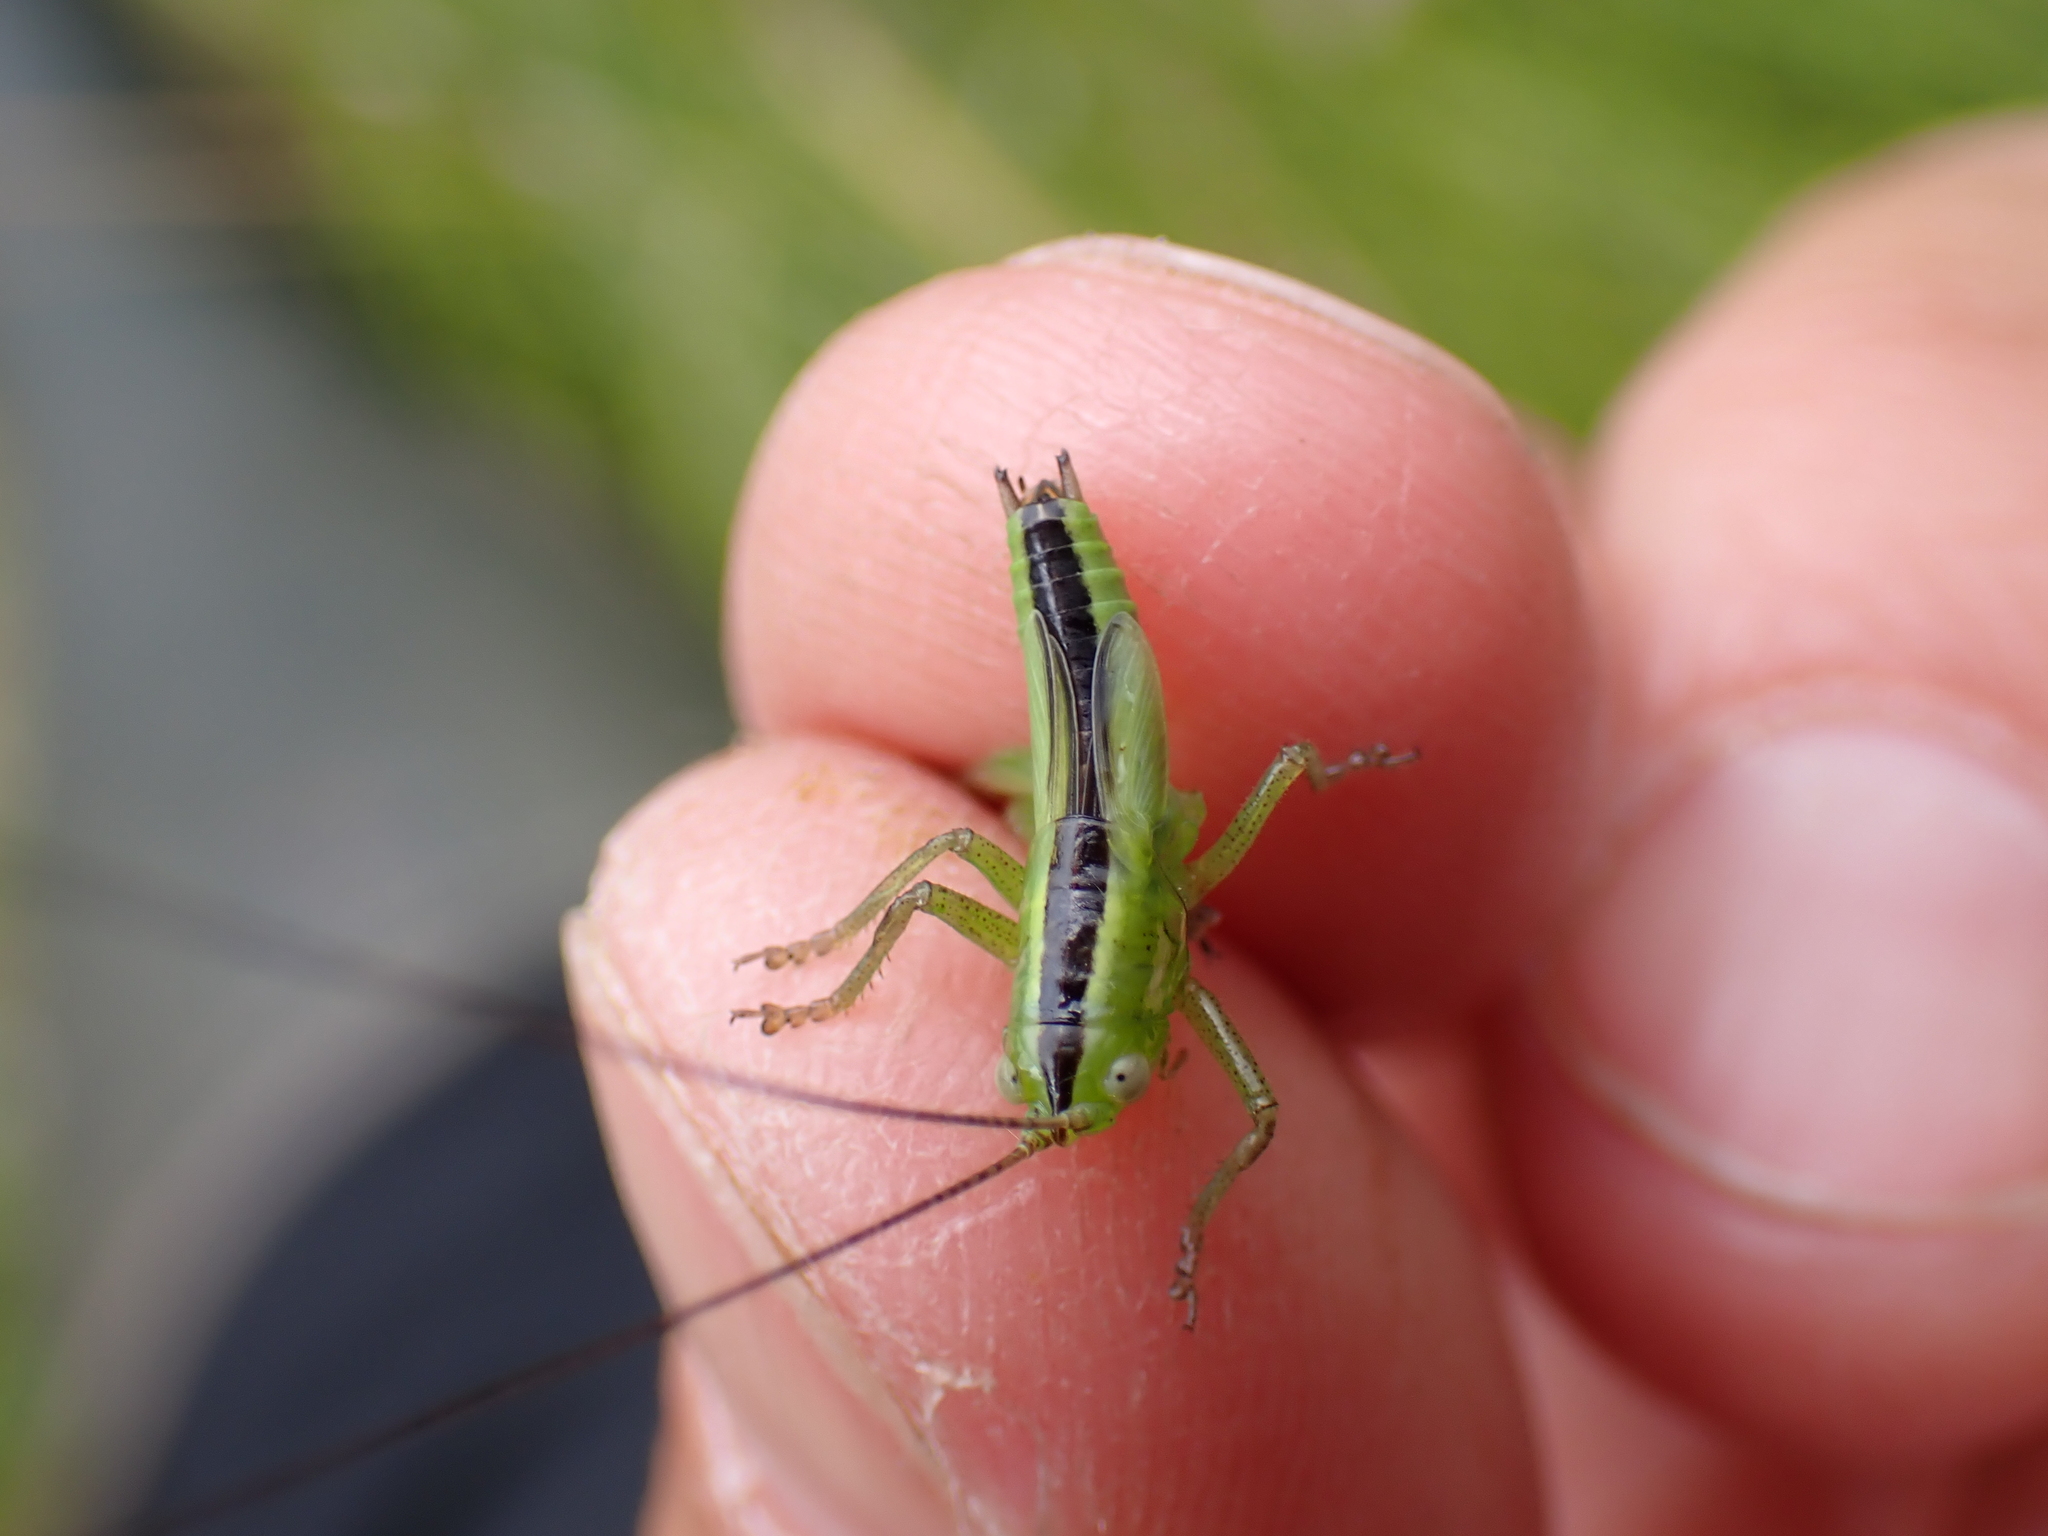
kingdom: Animalia
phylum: Arthropoda
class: Insecta
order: Orthoptera
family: Tettigoniidae
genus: Conocephalus
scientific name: Conocephalus fuscus
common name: Long-winged conehead
